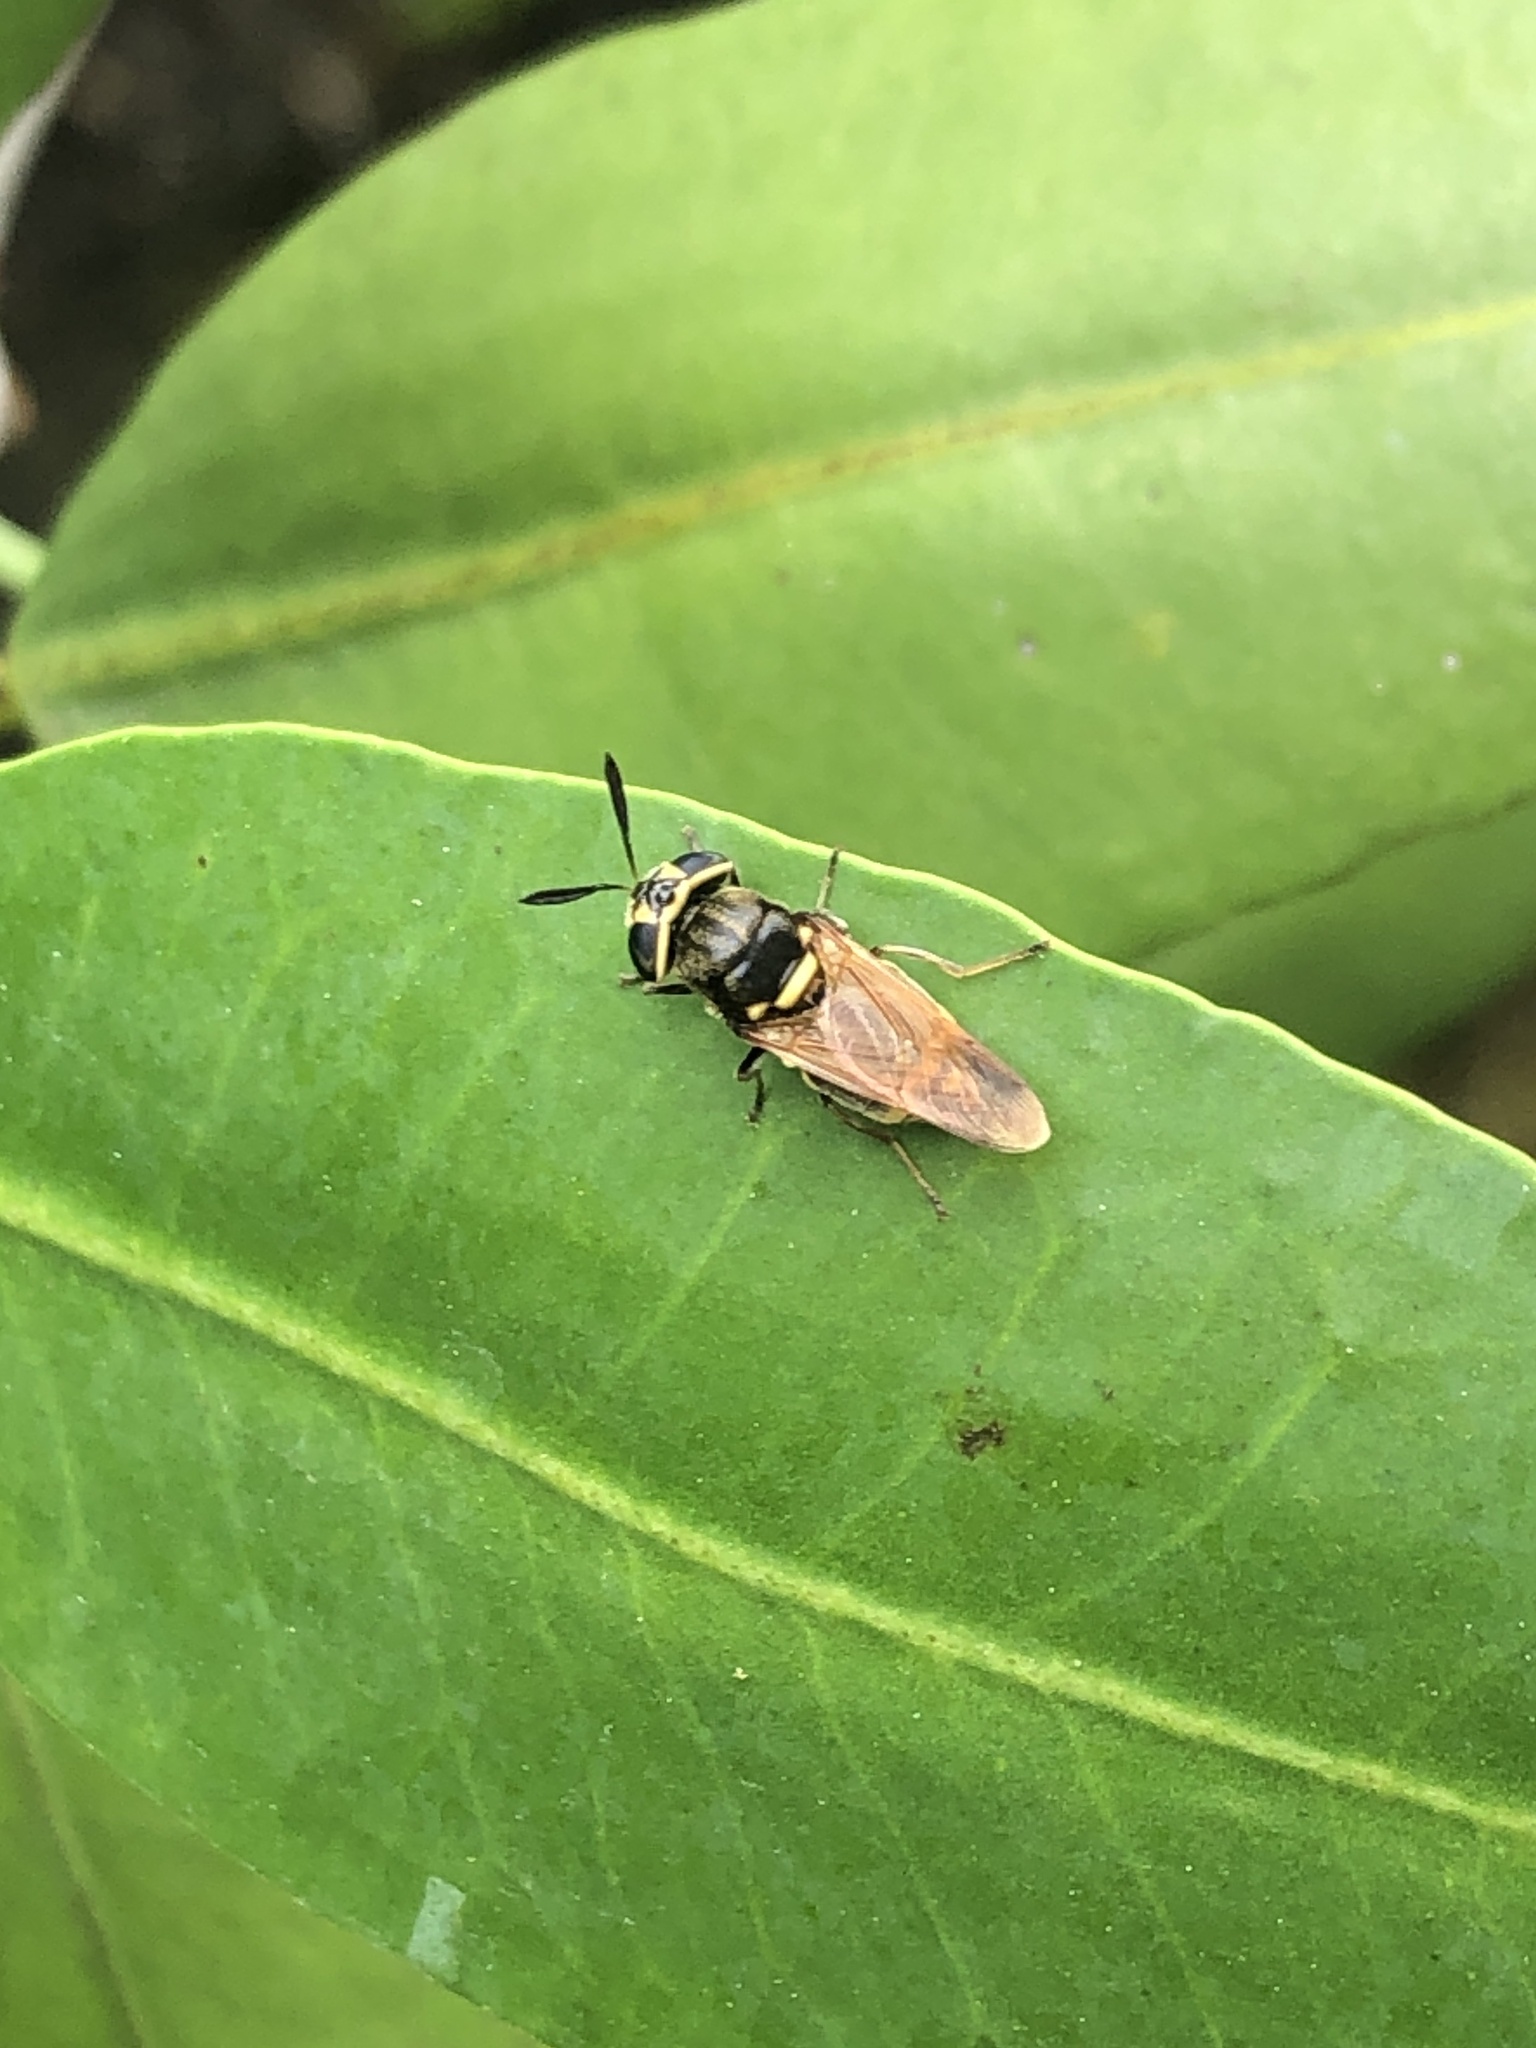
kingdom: Animalia
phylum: Arthropoda
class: Insecta
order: Diptera
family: Stratiomyidae
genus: Hoplitimyia
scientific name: Hoplitimyia mutabilis
